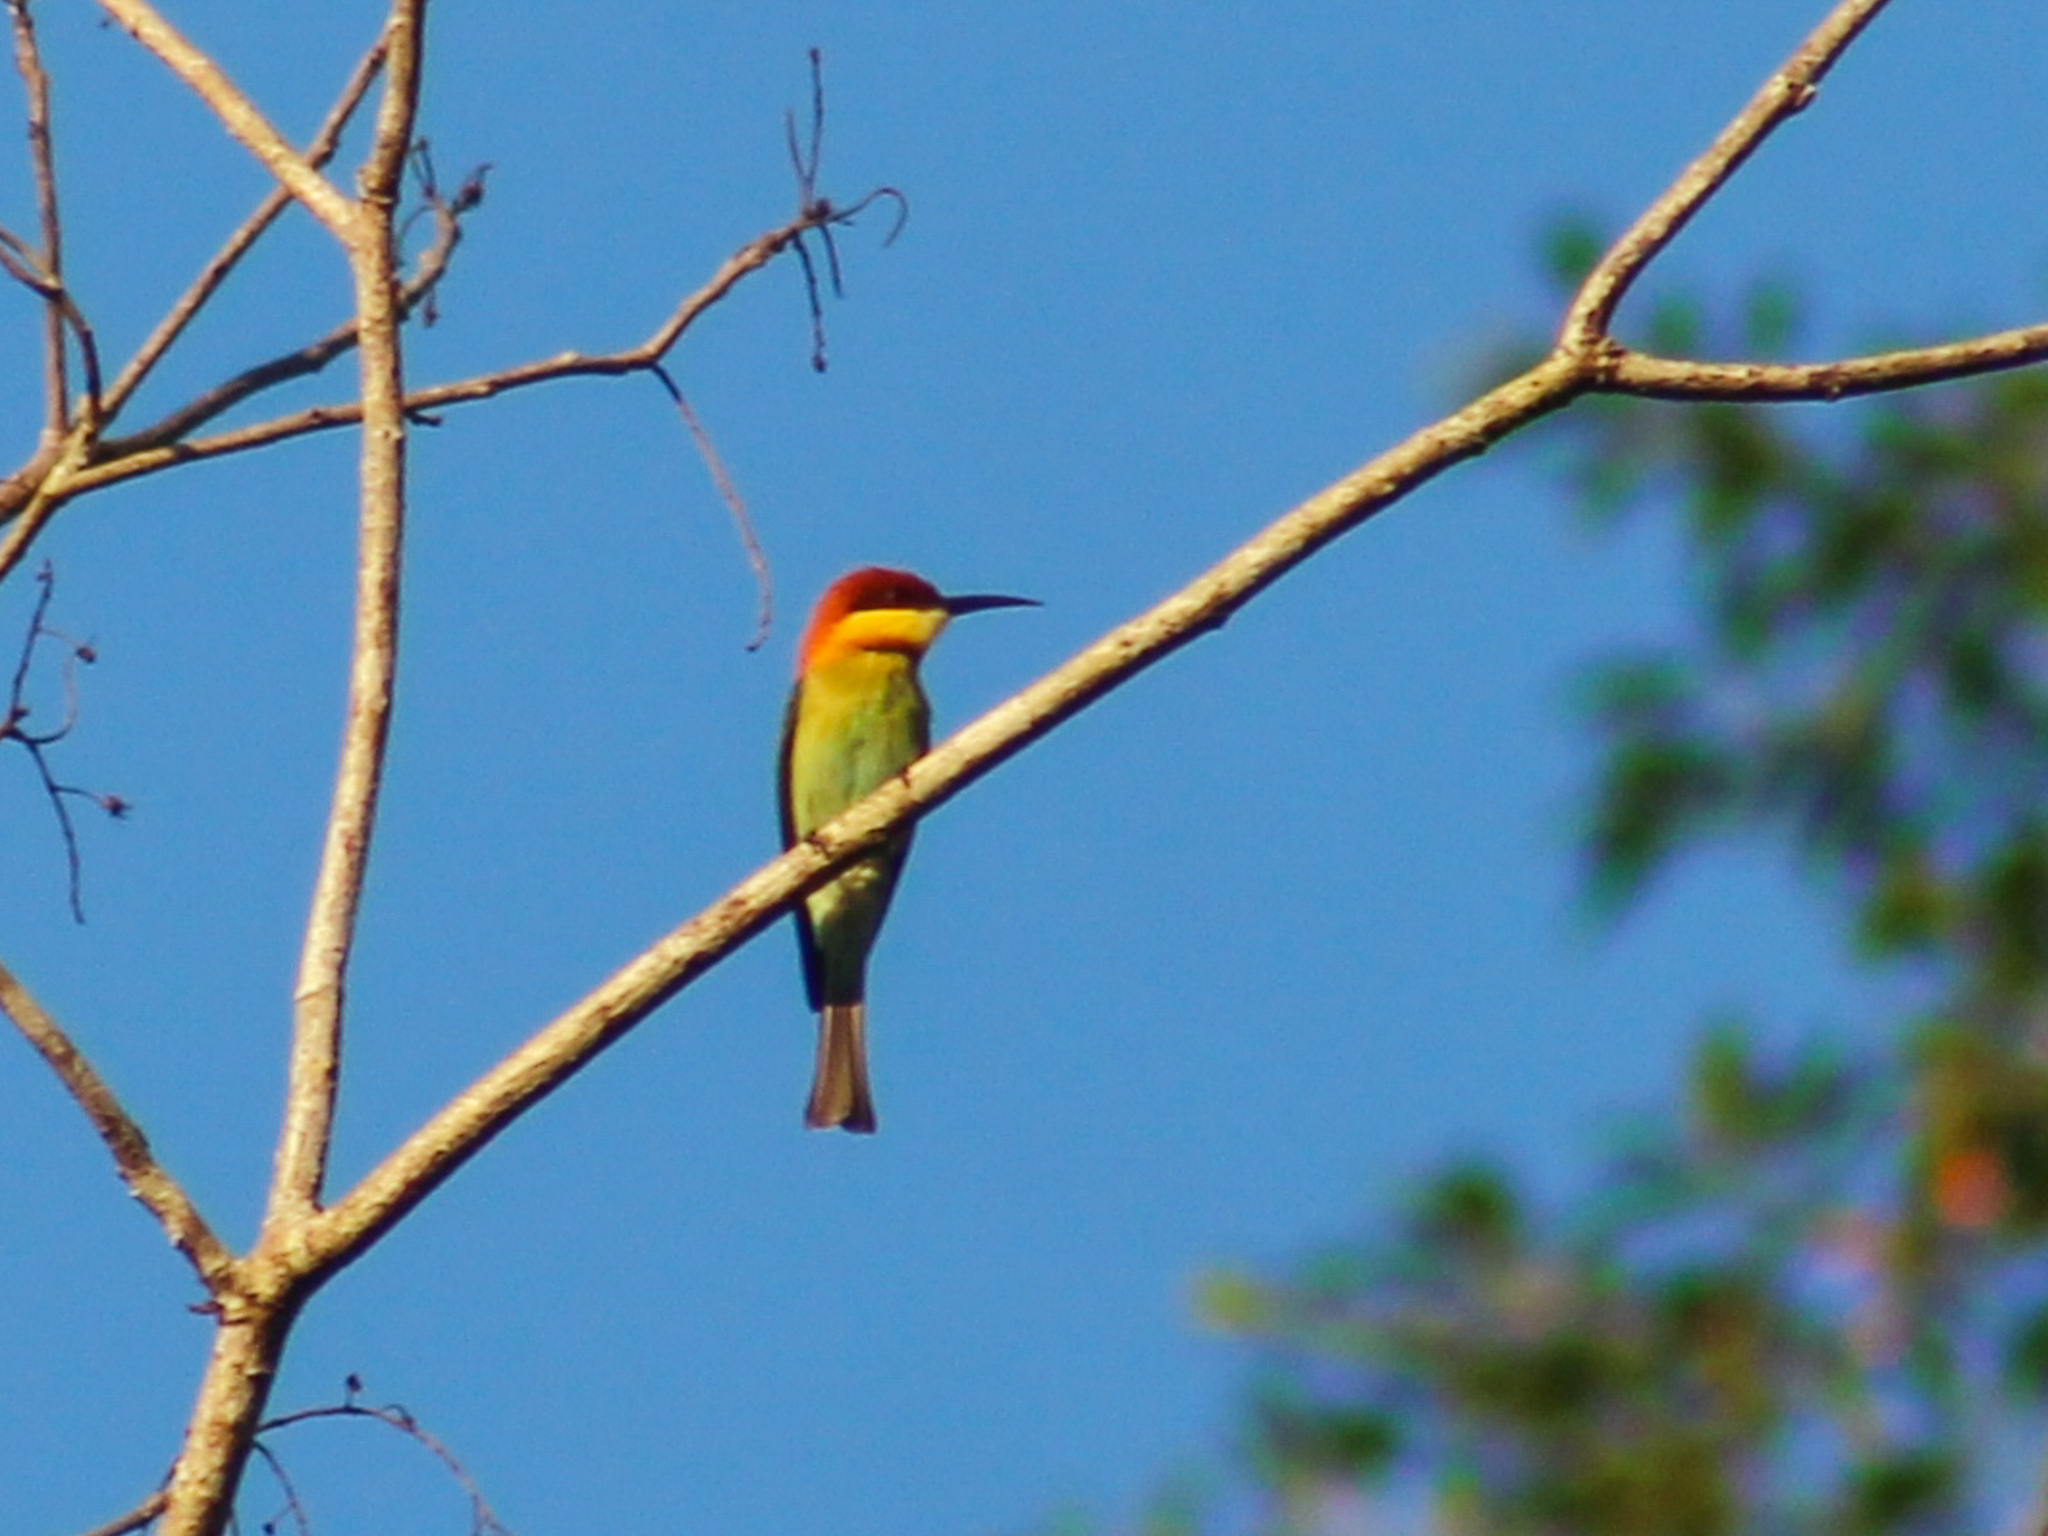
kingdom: Animalia
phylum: Chordata
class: Aves
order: Coraciiformes
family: Meropidae
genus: Merops
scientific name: Merops leschenaulti
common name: Chestnut-headed bee-eater
